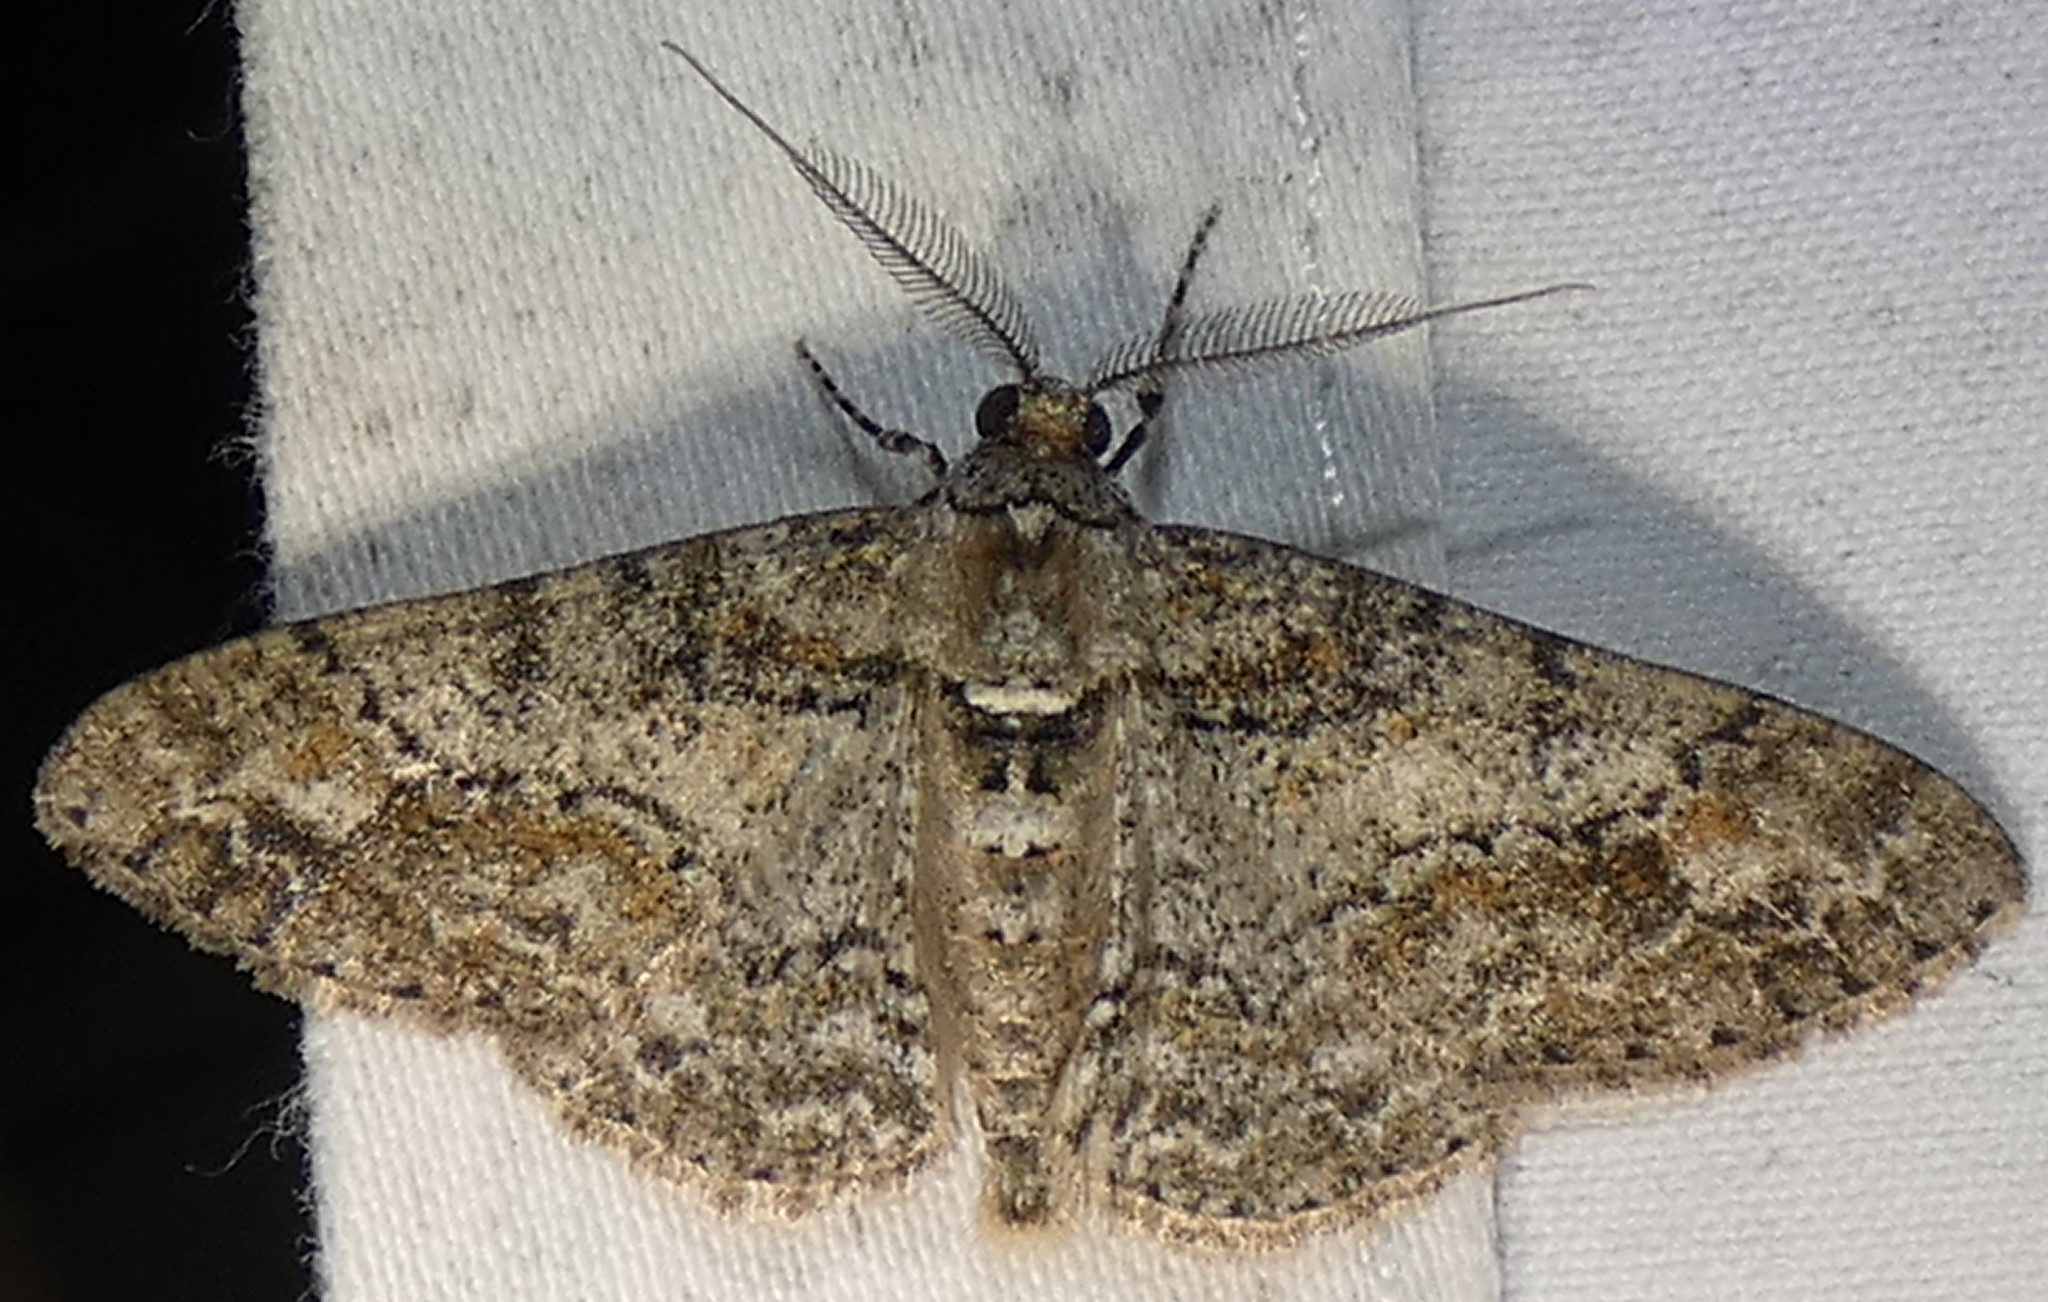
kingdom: Animalia
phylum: Arthropoda
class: Insecta
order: Lepidoptera
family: Geometridae
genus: Cleora
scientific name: Cleora sublunaria
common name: Double-lined gray
